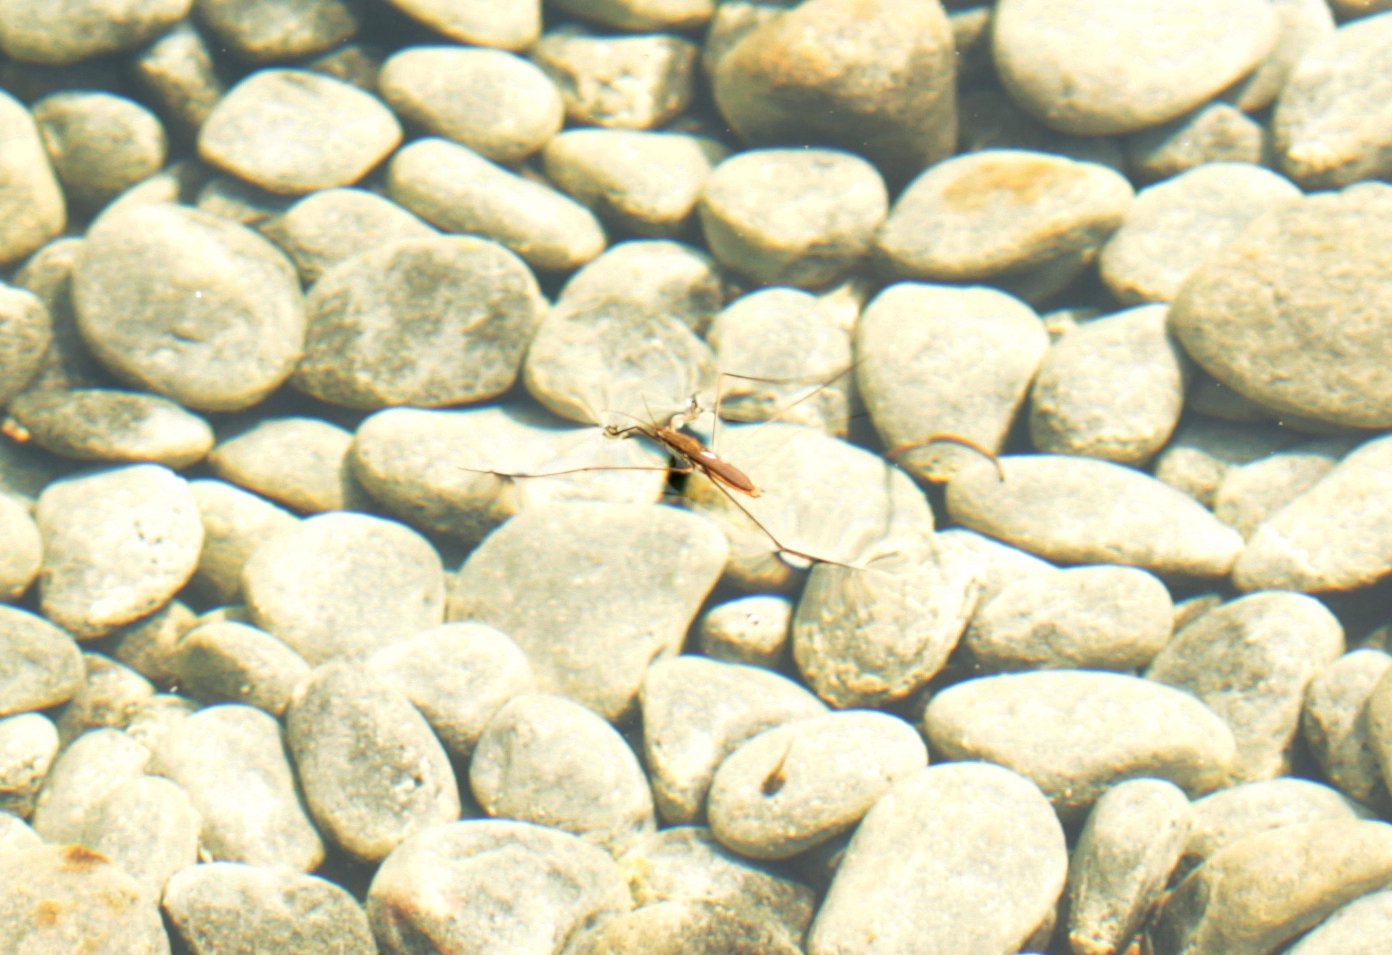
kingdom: Animalia
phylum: Arthropoda
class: Insecta
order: Hemiptera
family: Gerridae
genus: Limnoporus
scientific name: Limnoporus
